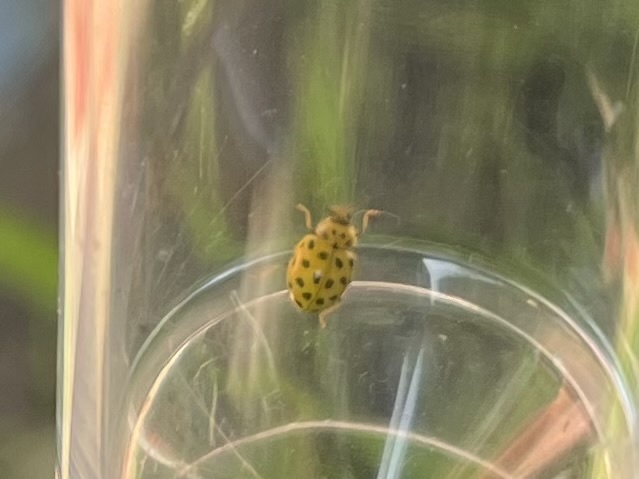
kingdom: Animalia
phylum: Arthropoda
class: Insecta
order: Coleoptera
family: Coccinellidae
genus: Psyllobora
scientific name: Psyllobora vigintiduopunctata
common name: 22-spot ladybird
